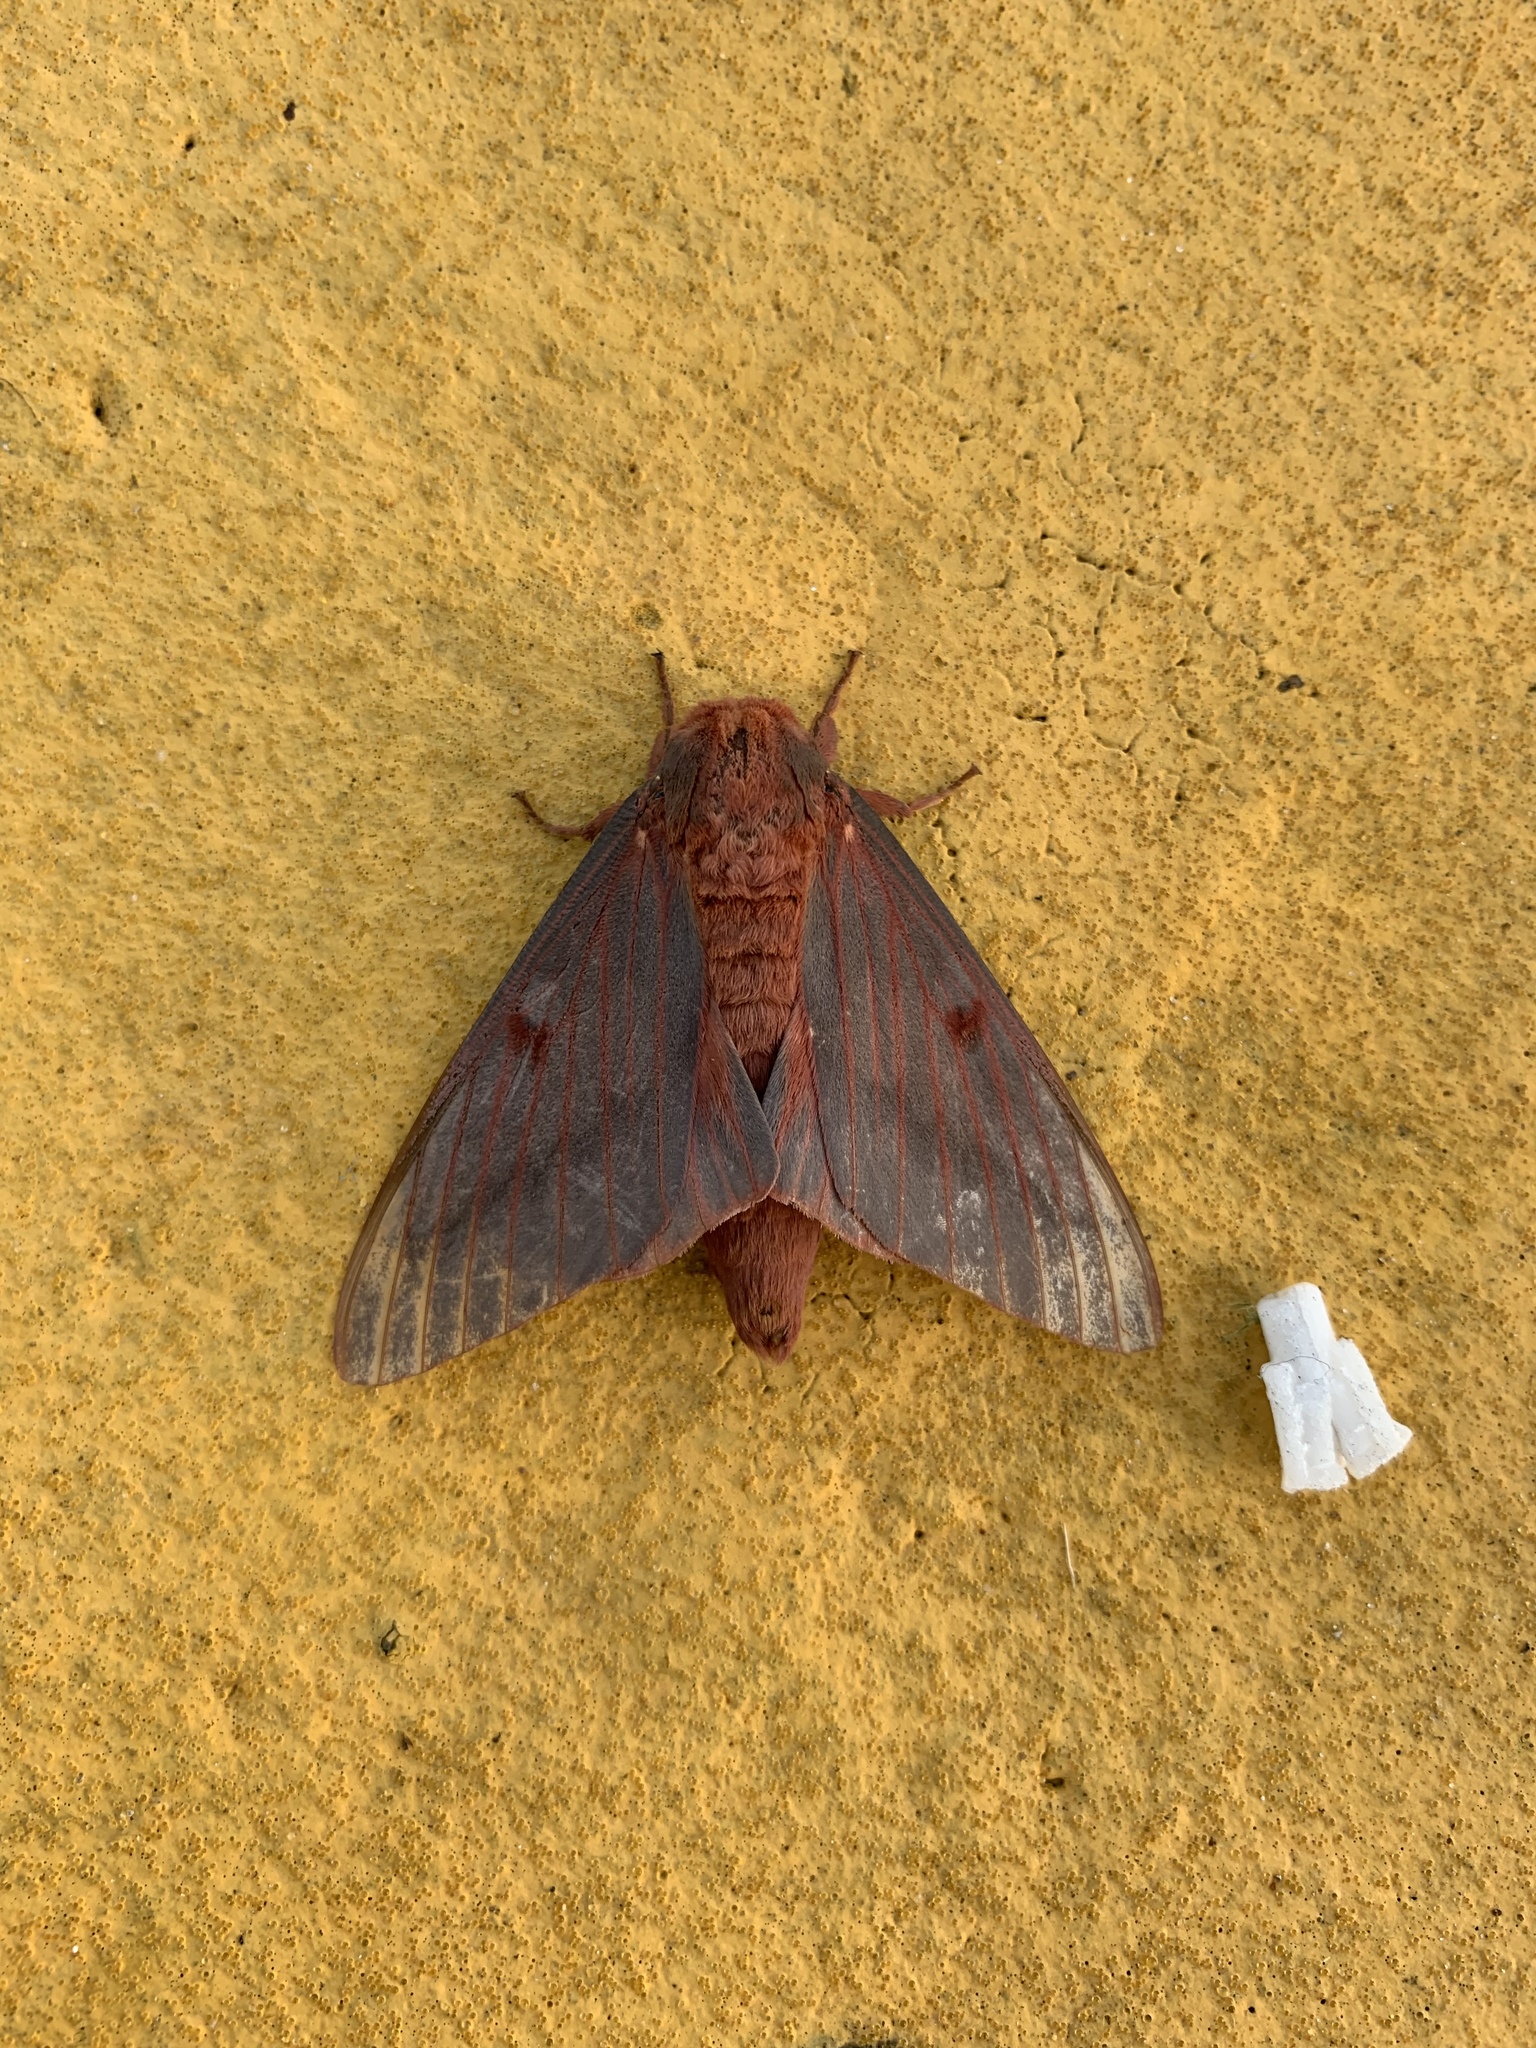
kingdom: Animalia
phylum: Arthropoda
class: Insecta
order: Lepidoptera
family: Saturniidae
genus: Citheronia
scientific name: Citheronia sepulcralis
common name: Pine-devil moth
